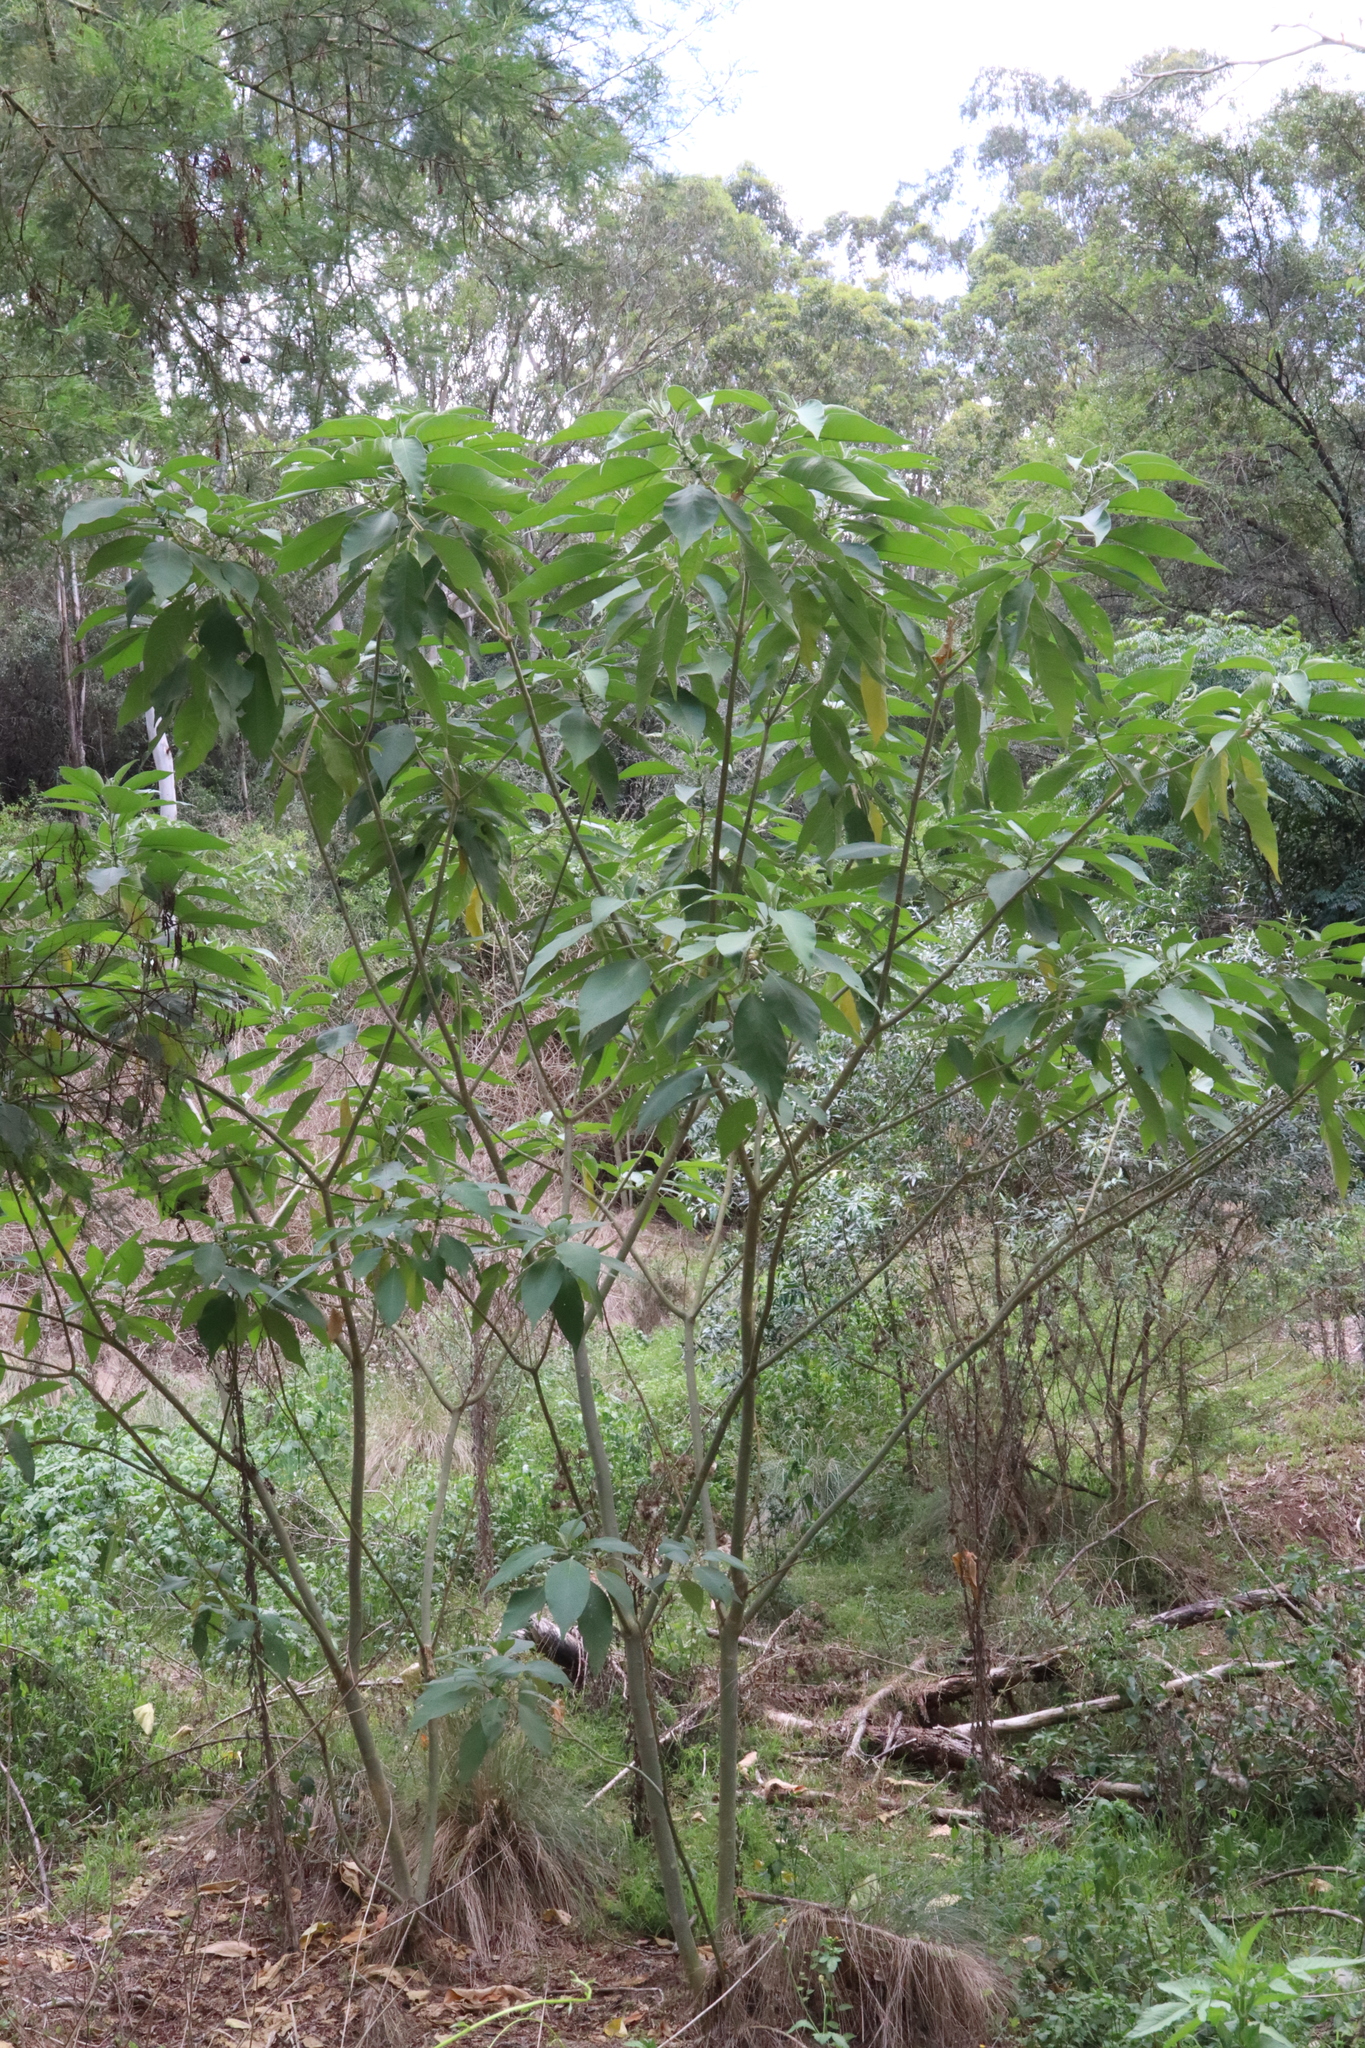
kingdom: Plantae
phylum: Tracheophyta
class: Magnoliopsida
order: Solanales
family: Solanaceae
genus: Solanum
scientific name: Solanum mauritianum
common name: Earleaf nightshade
